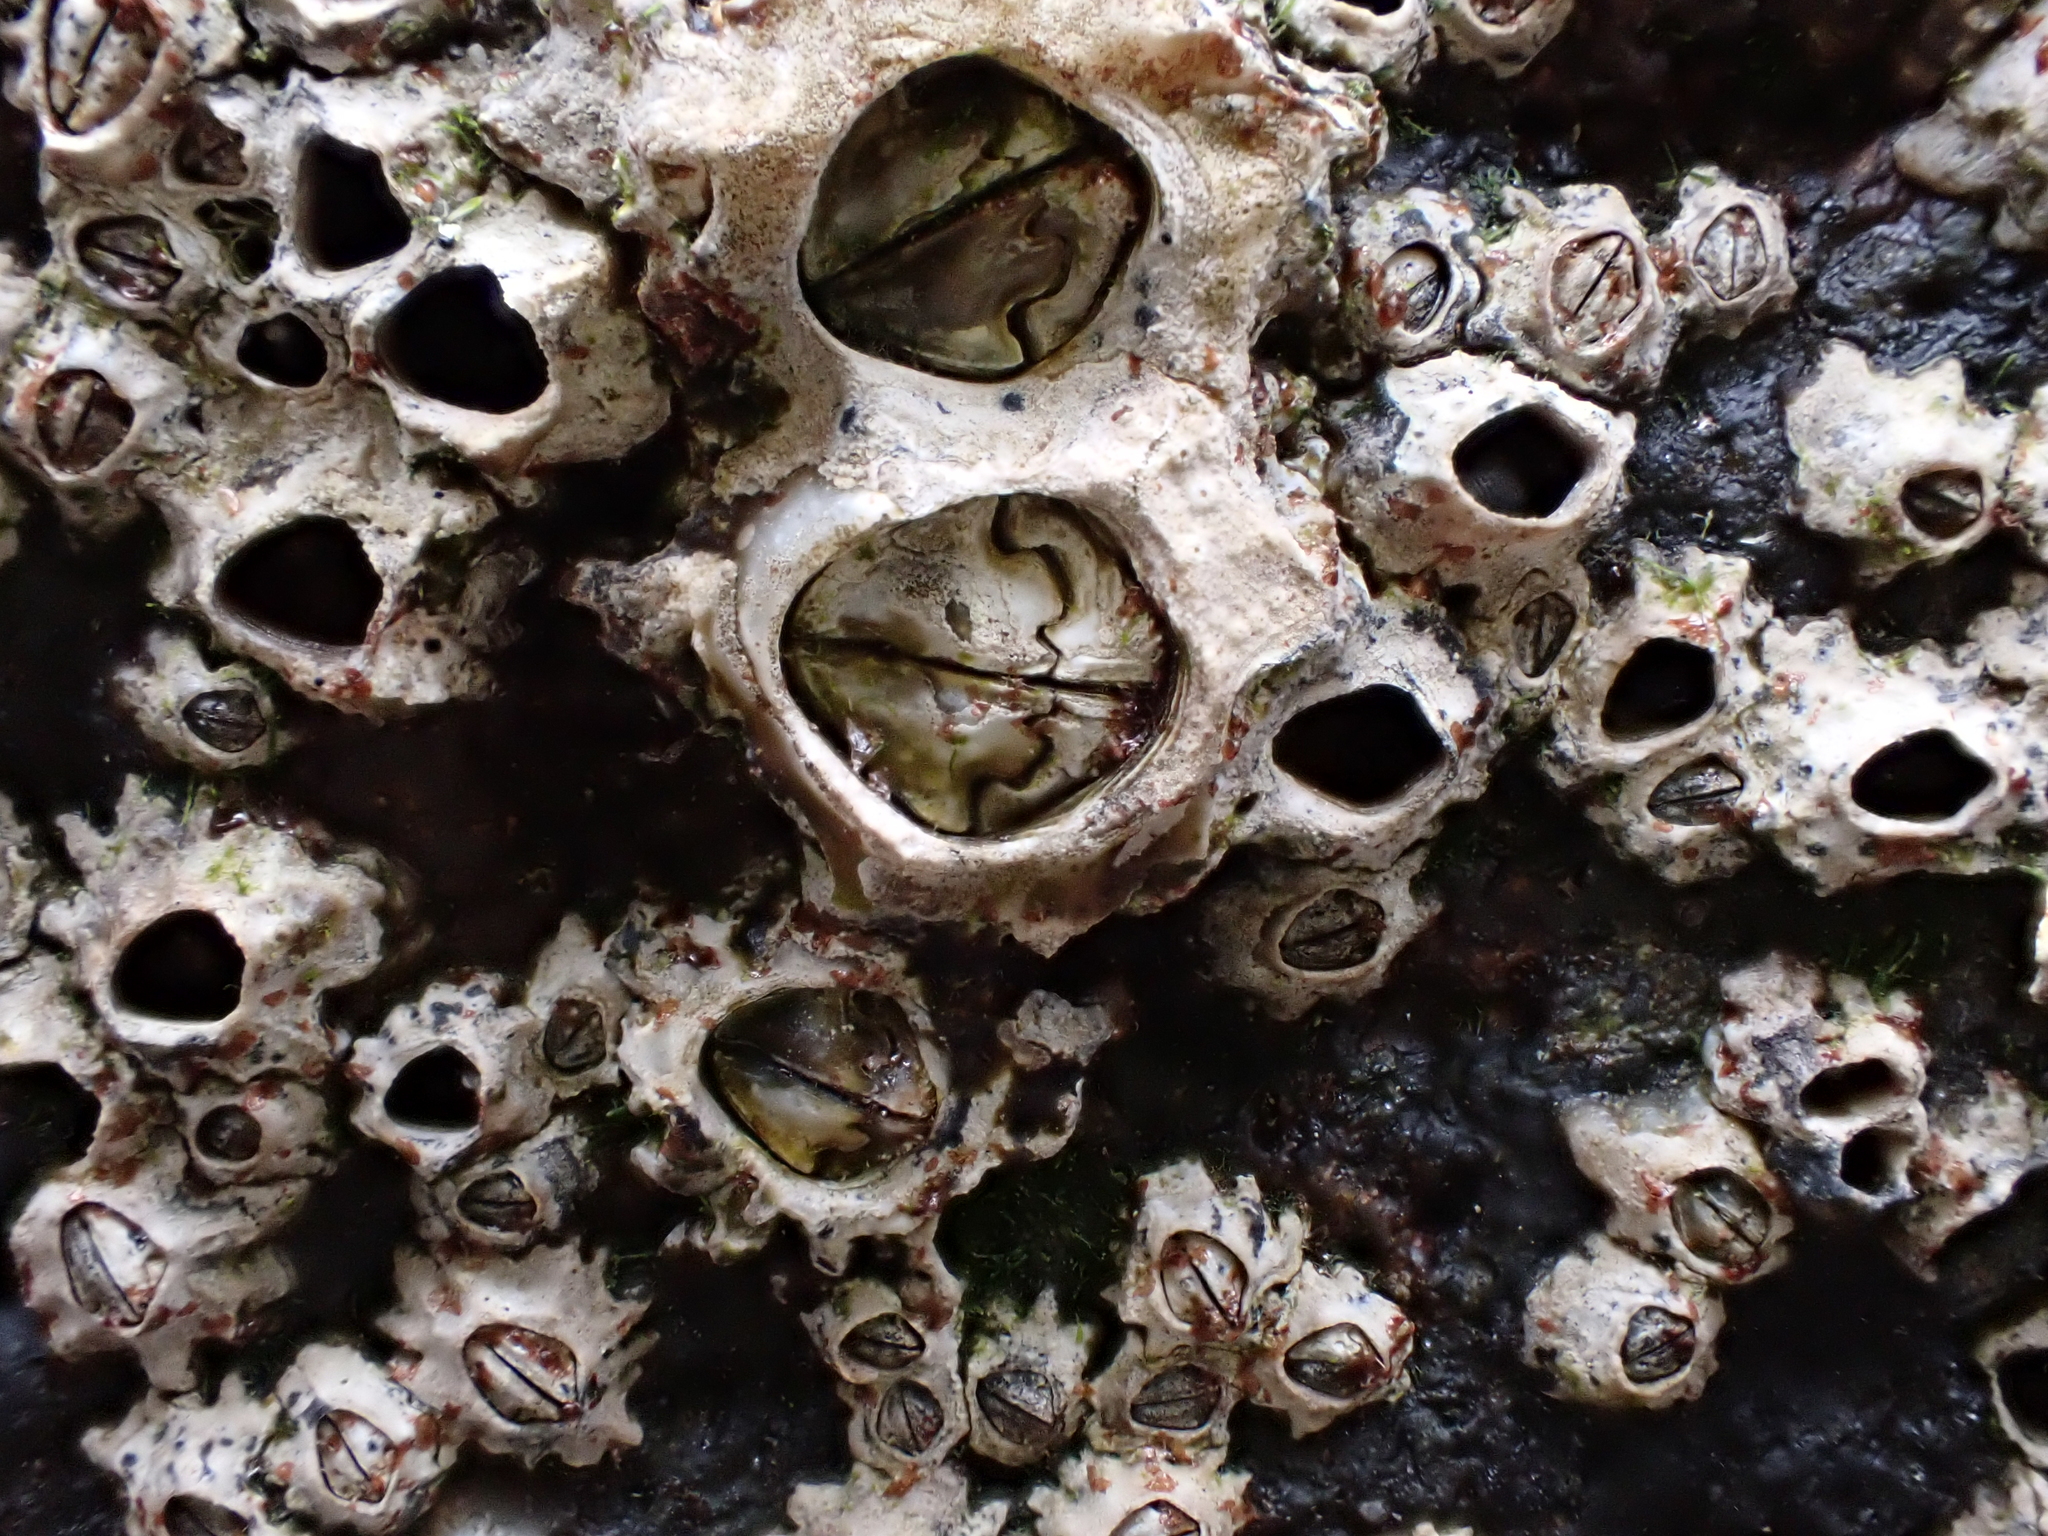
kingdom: Animalia
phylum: Arthropoda
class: Maxillopoda
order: Sessilia
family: Chthamalidae
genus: Chamaesipho
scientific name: Chamaesipho brunnea
